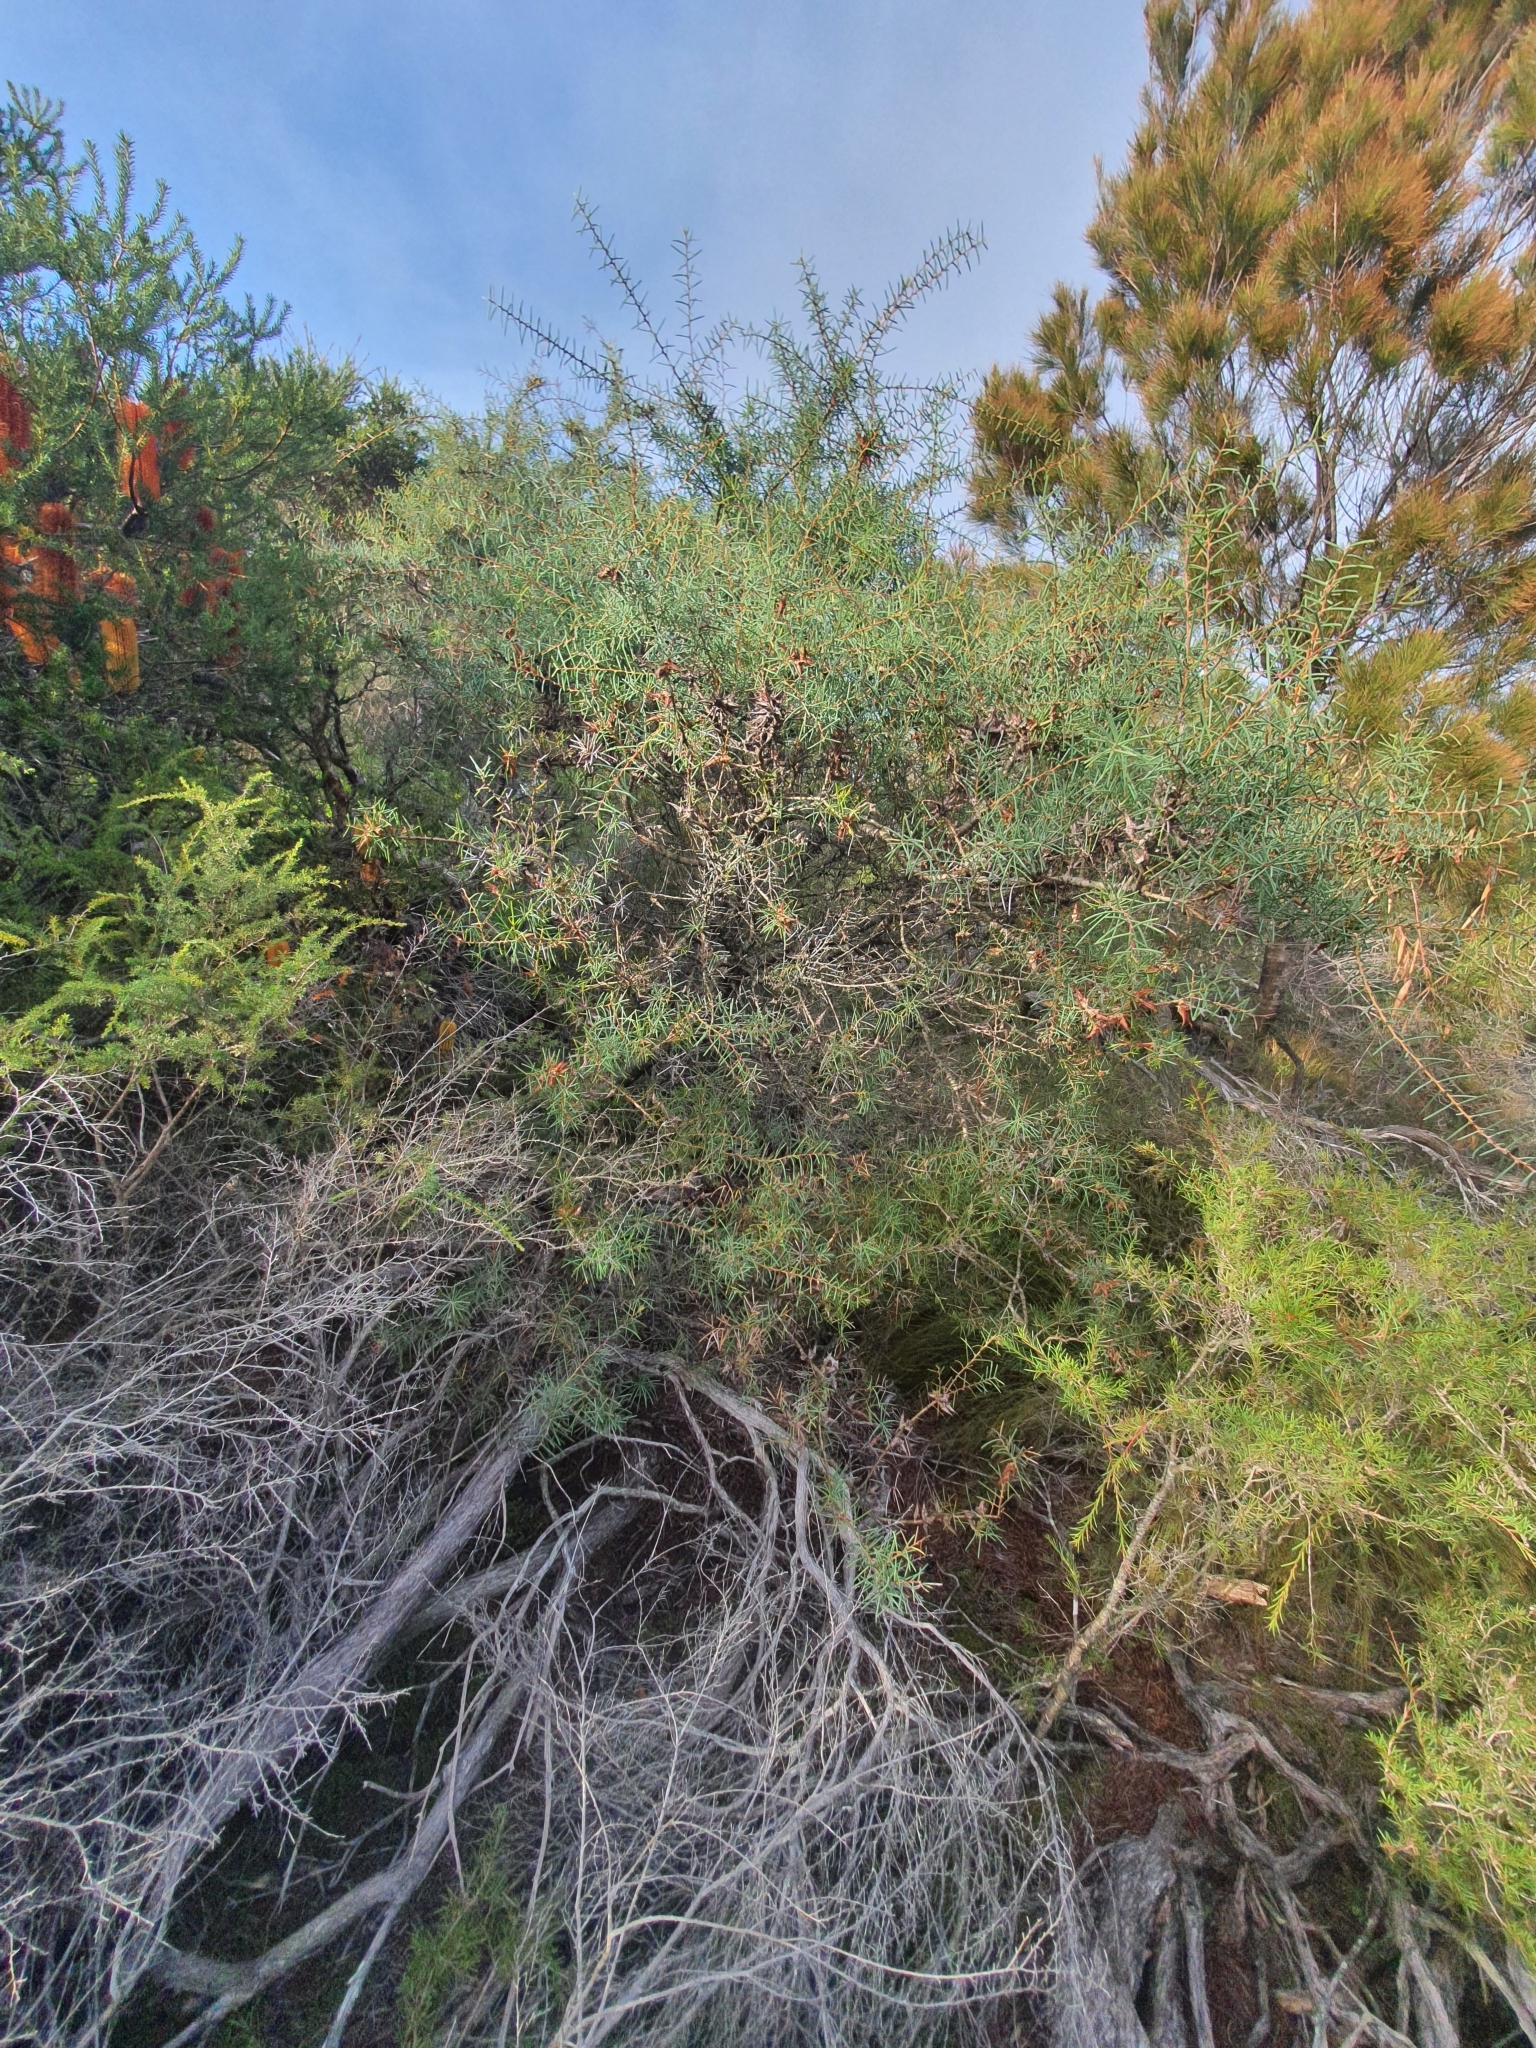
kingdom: Plantae
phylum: Tracheophyta
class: Magnoliopsida
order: Proteales
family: Proteaceae
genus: Hakea
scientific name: Hakea teretifolia
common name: Dagger hakea
